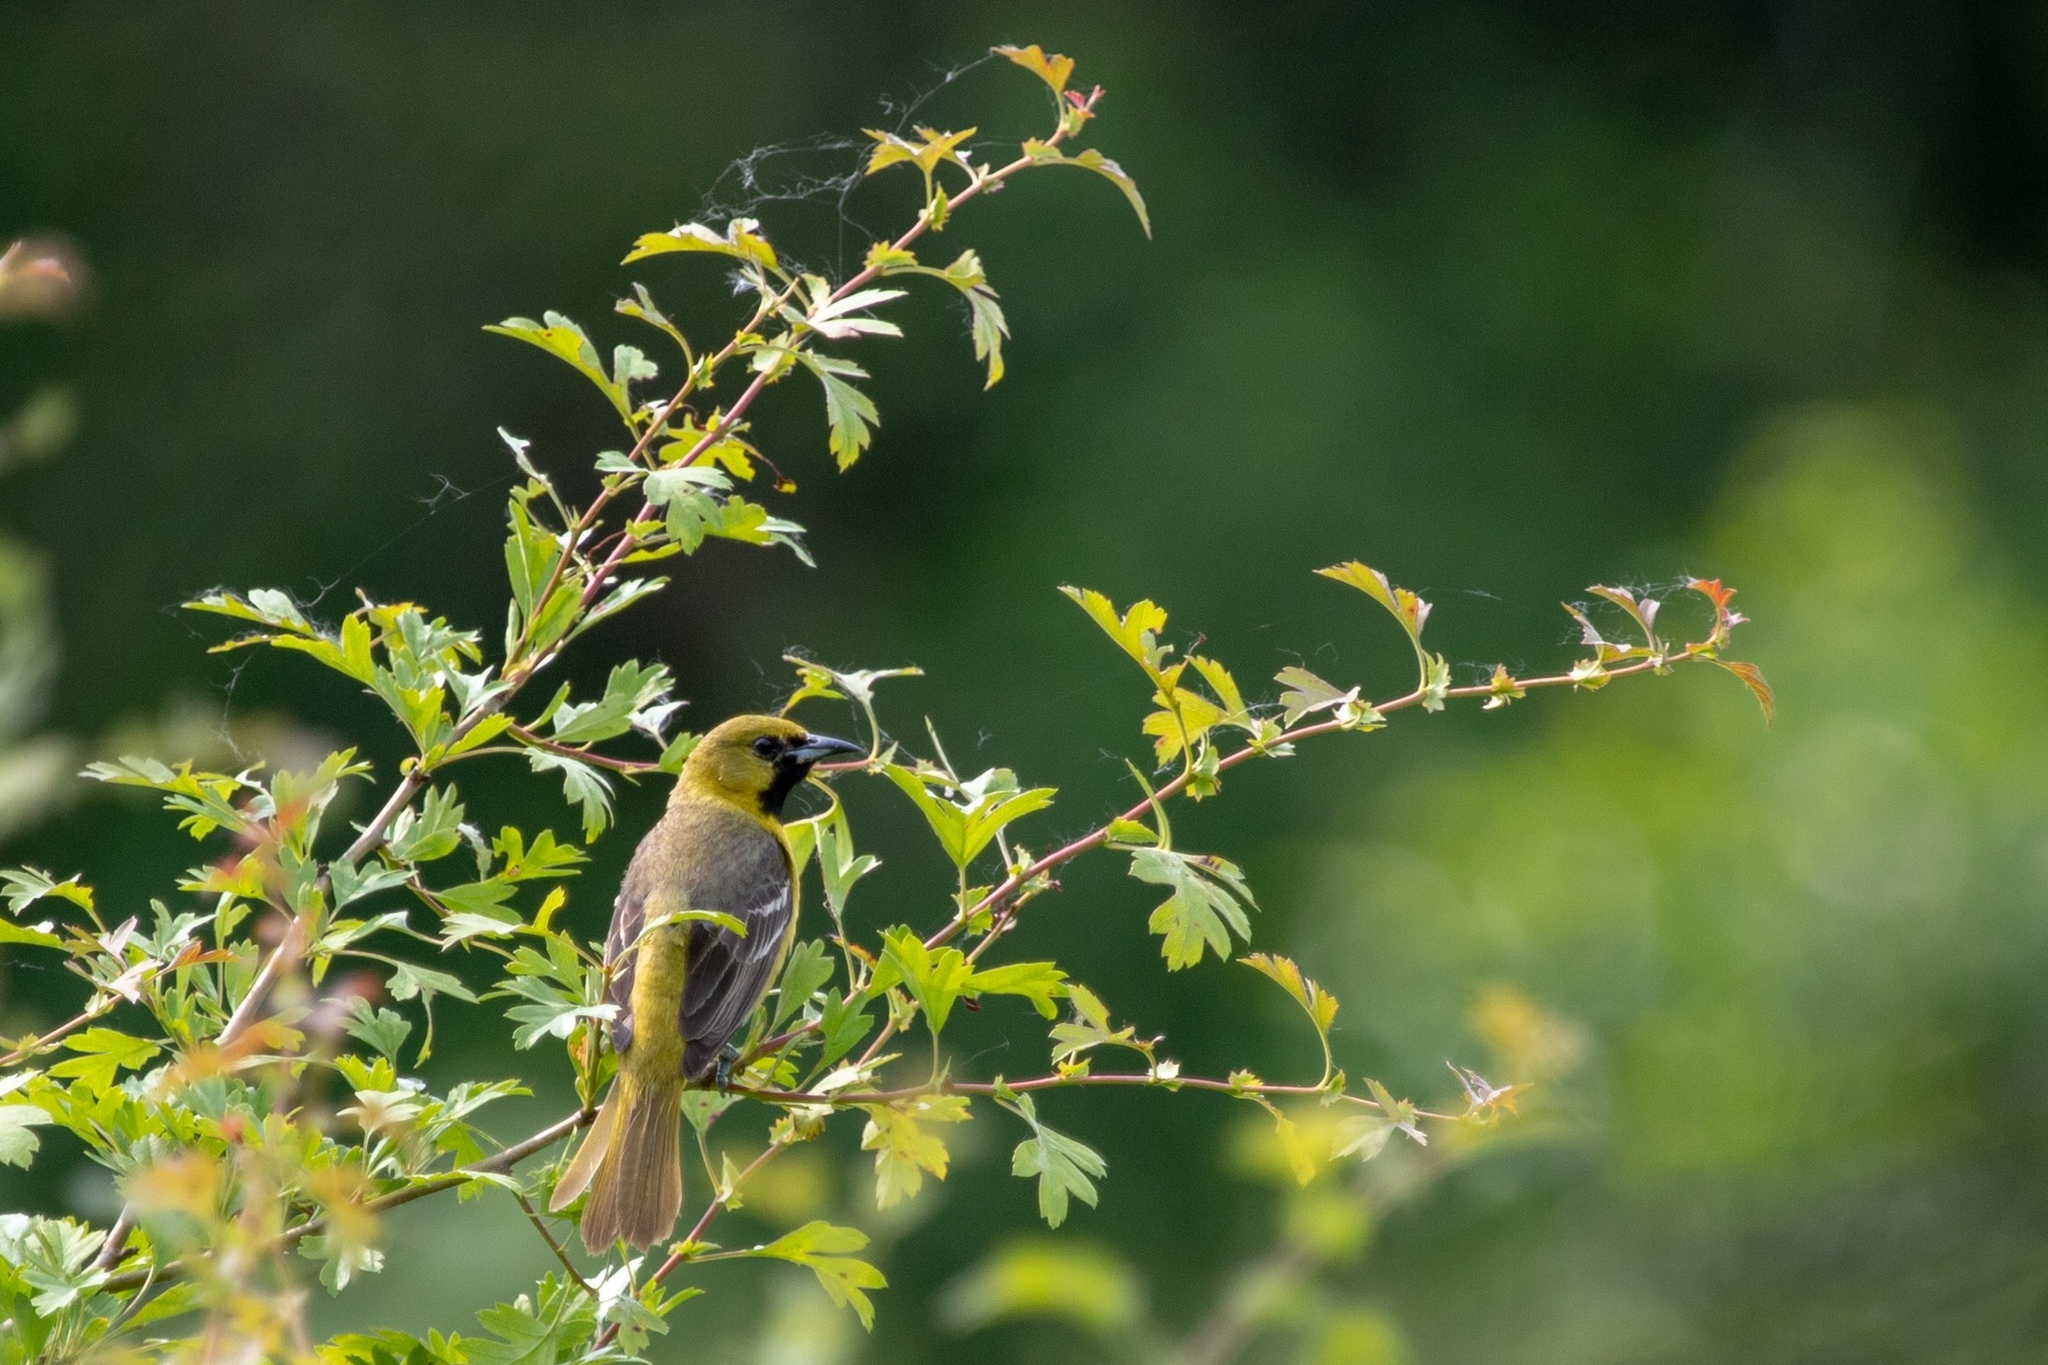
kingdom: Animalia
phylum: Chordata
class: Aves
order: Passeriformes
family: Icteridae
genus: Icterus
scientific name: Icterus spurius
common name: Orchard oriole
